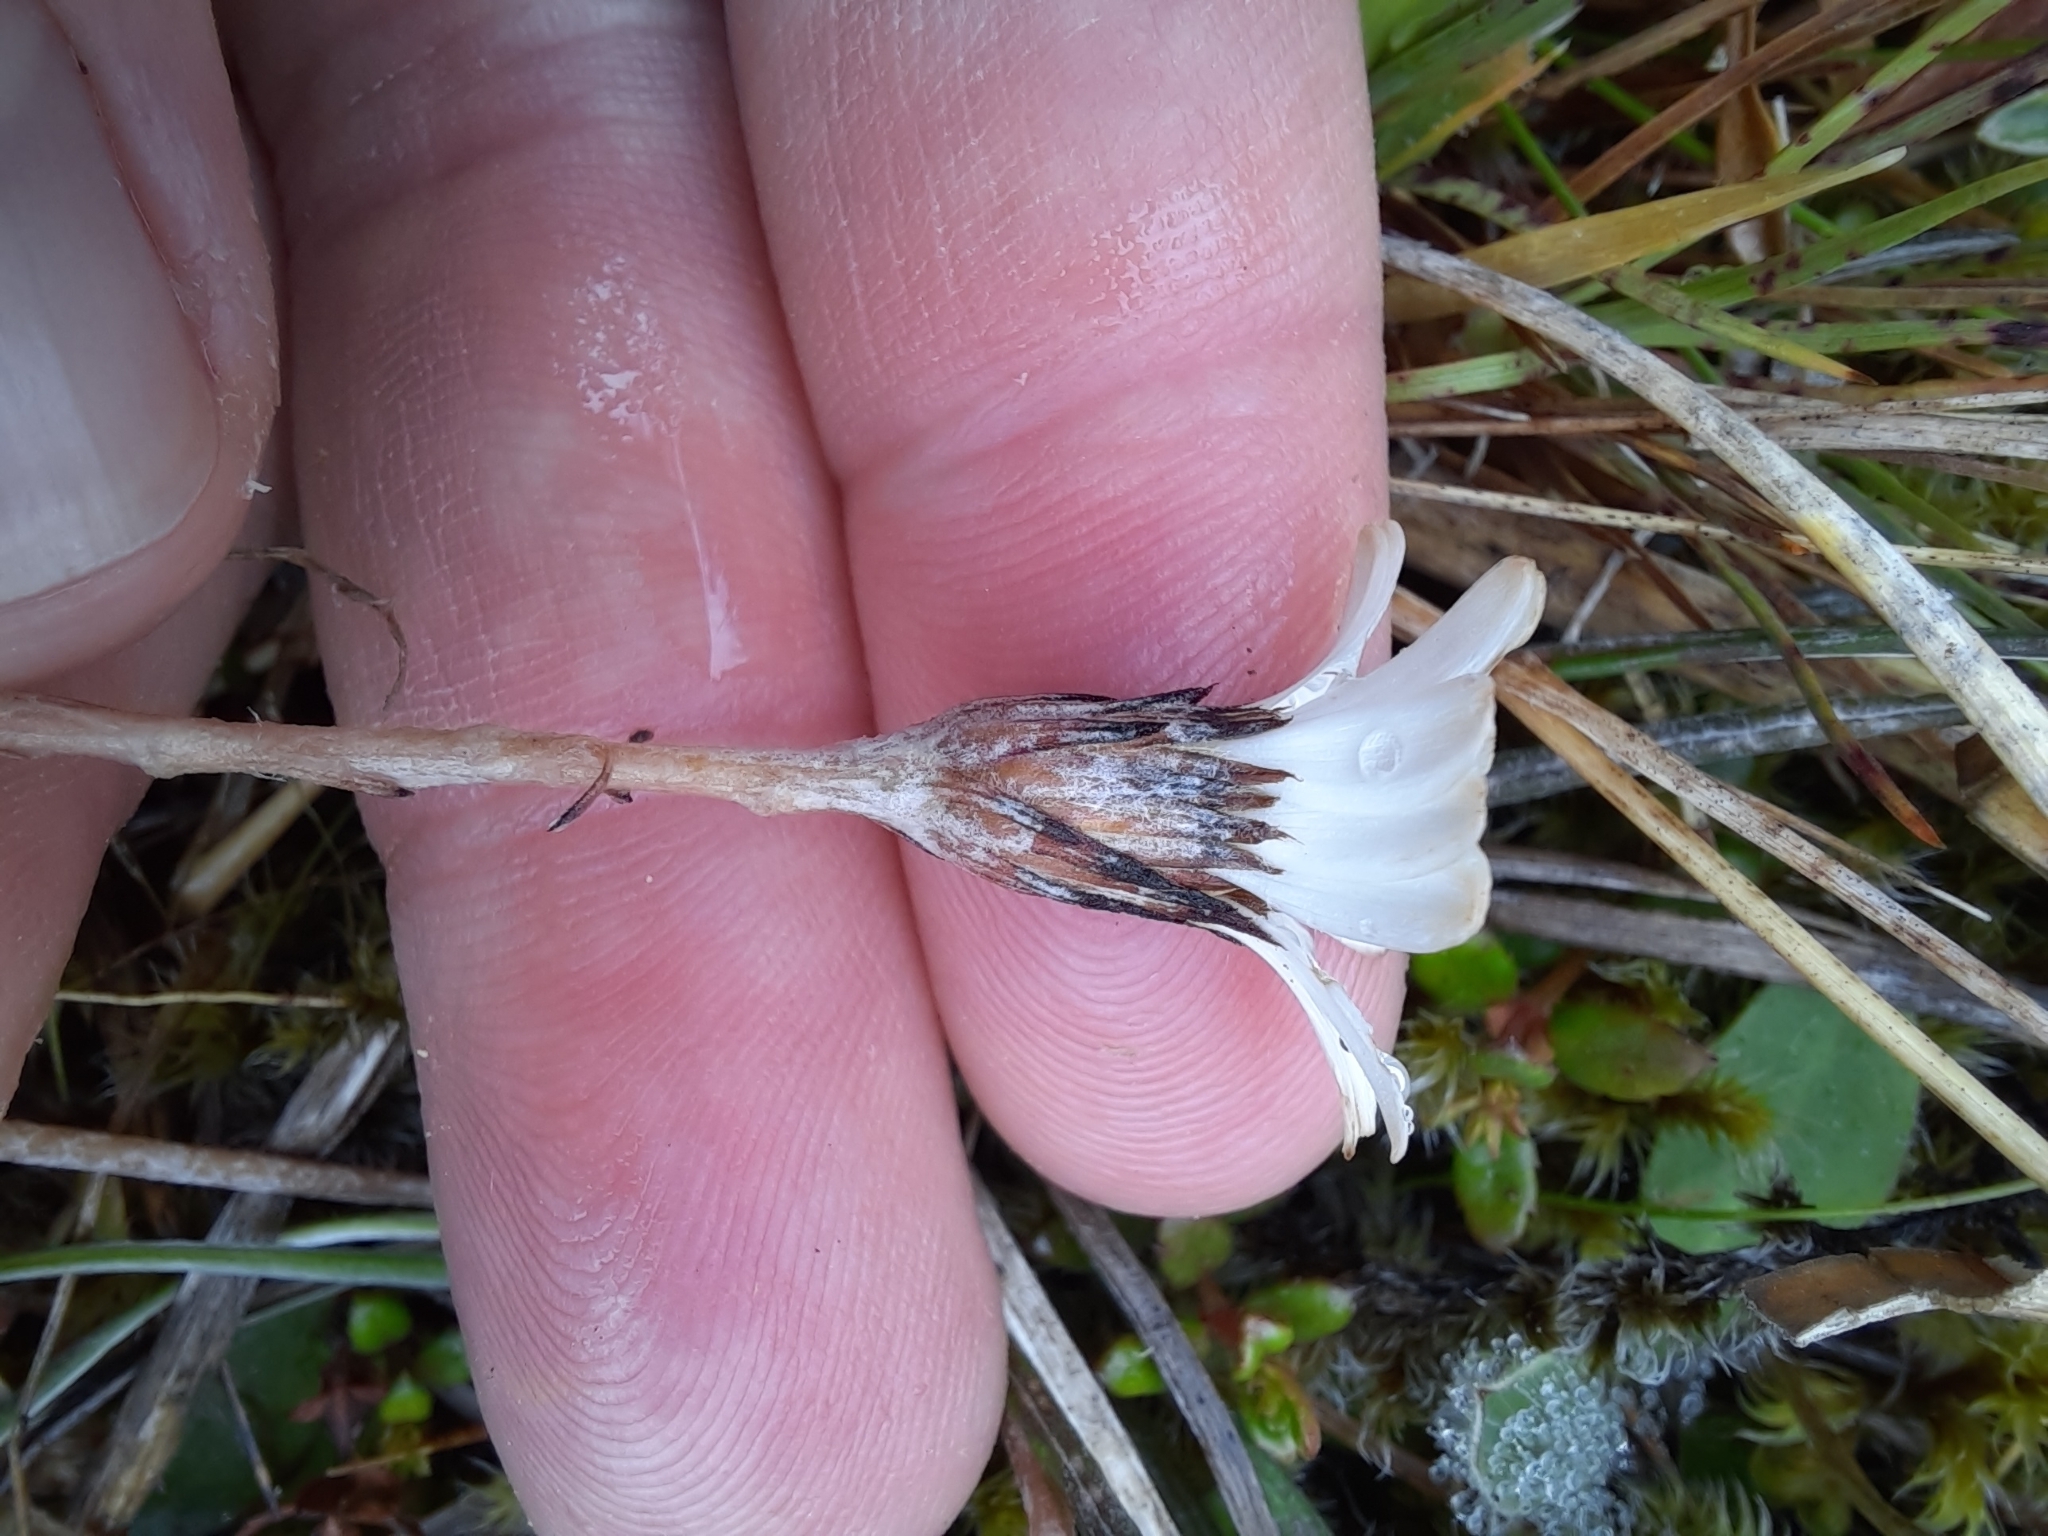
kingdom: Plantae
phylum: Tracheophyta
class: Magnoliopsida
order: Asterales
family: Asteraceae
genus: Celmisia
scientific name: Celmisia gracilenta
